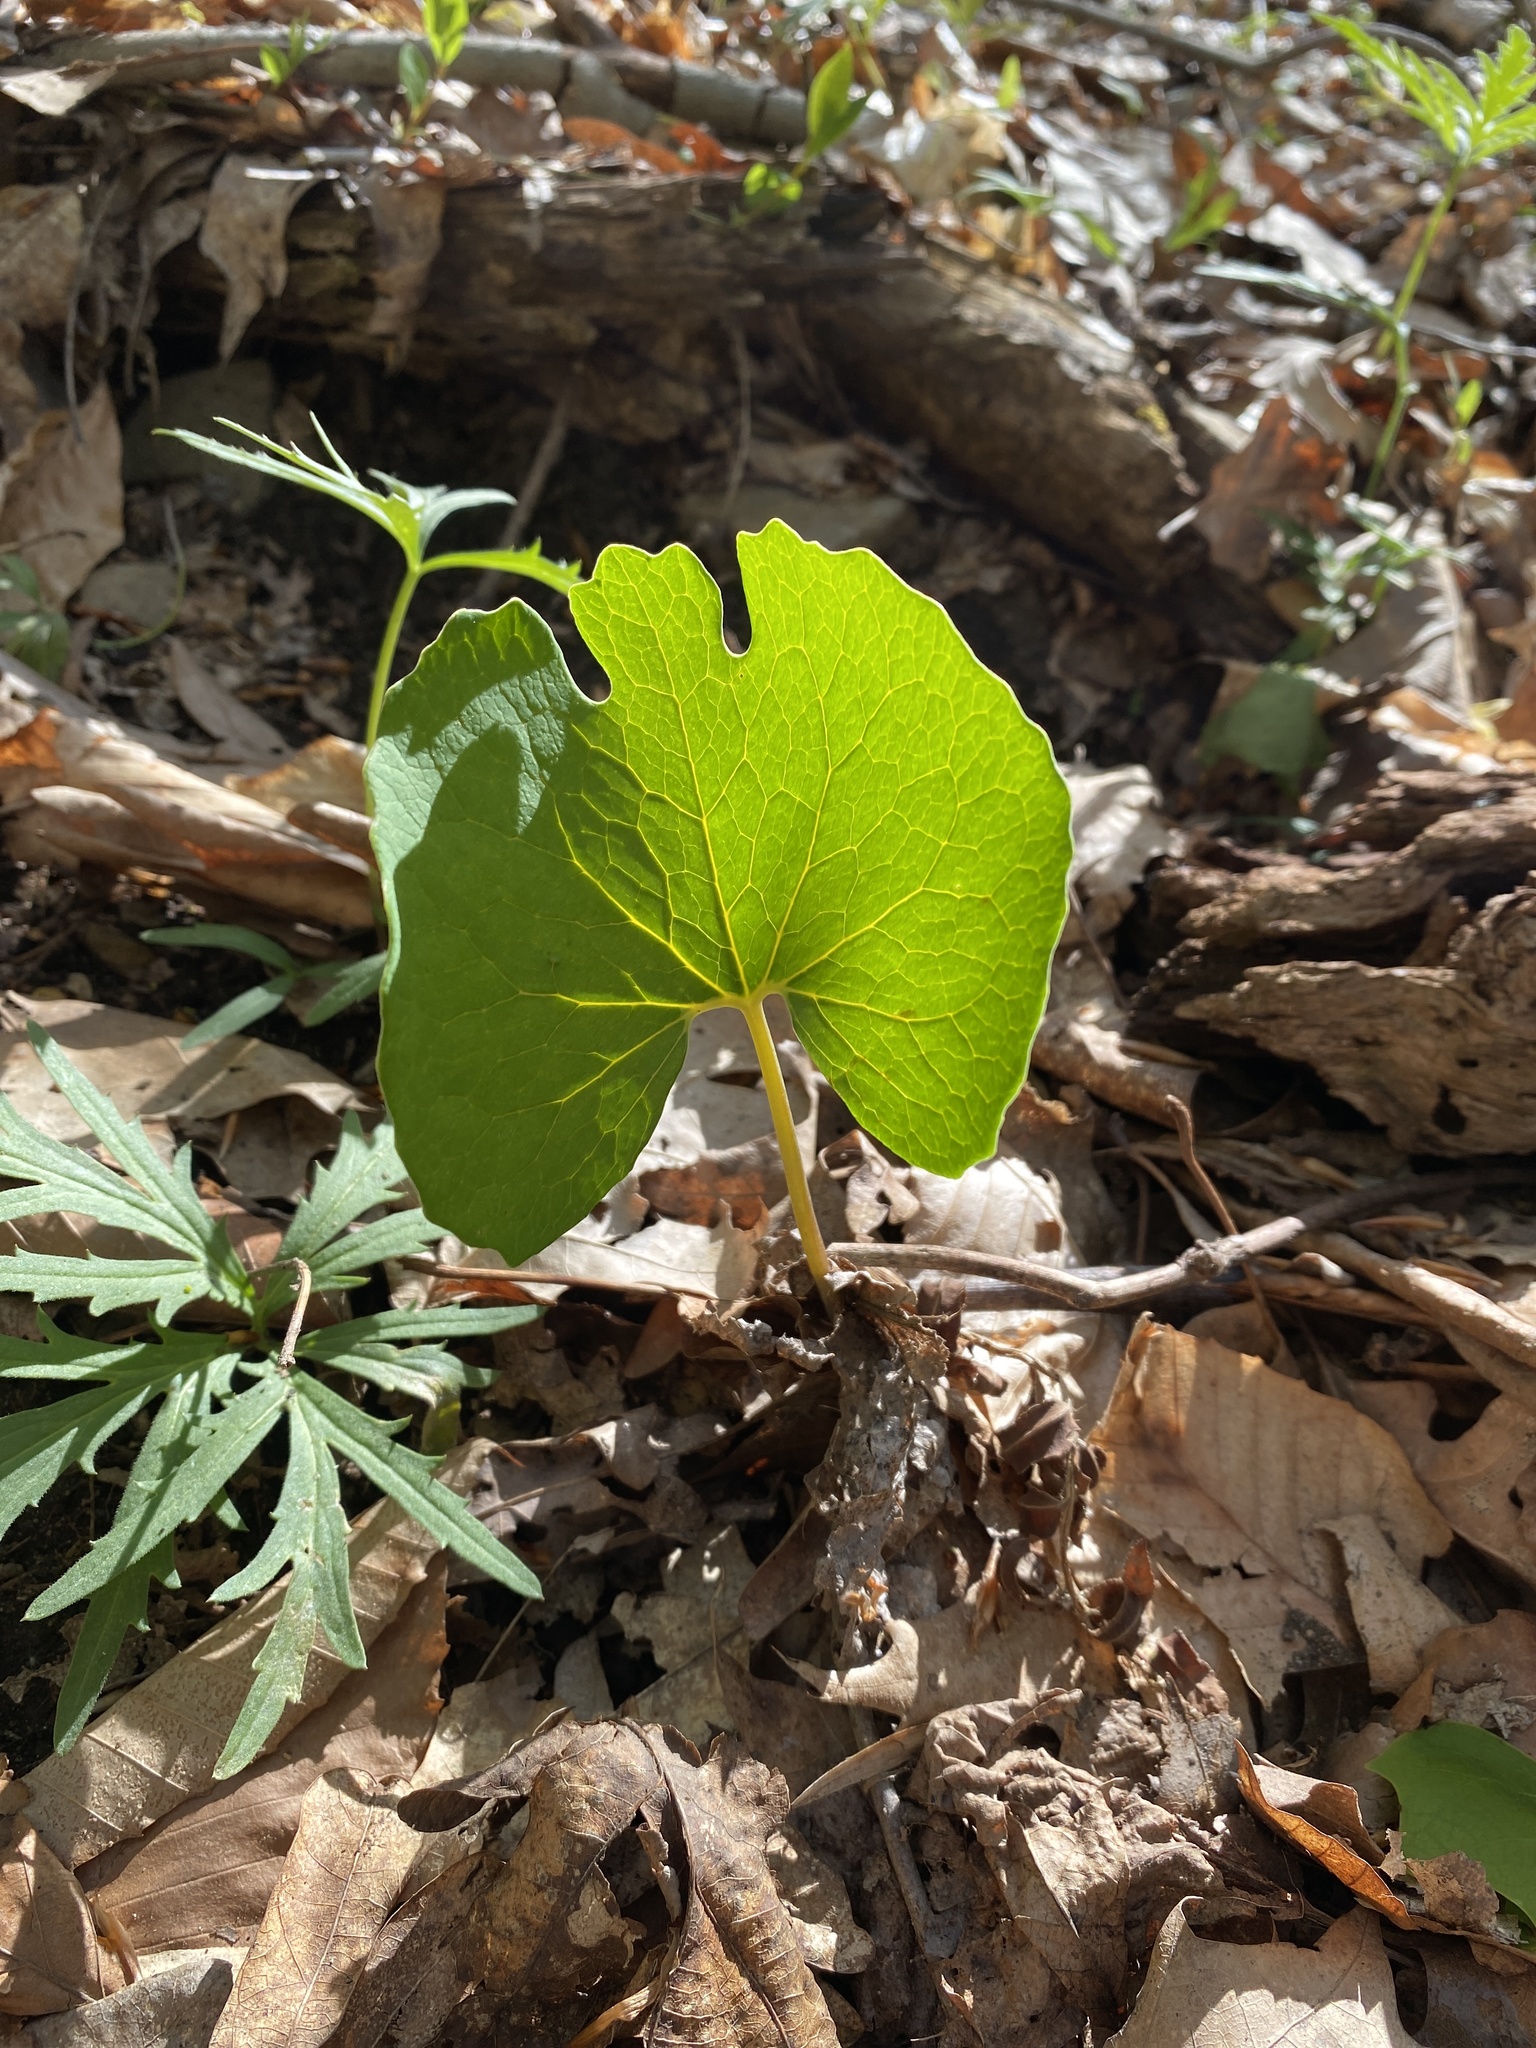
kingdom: Plantae
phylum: Tracheophyta
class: Magnoliopsida
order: Ranunculales
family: Papaveraceae
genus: Sanguinaria
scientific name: Sanguinaria canadensis
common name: Bloodroot
